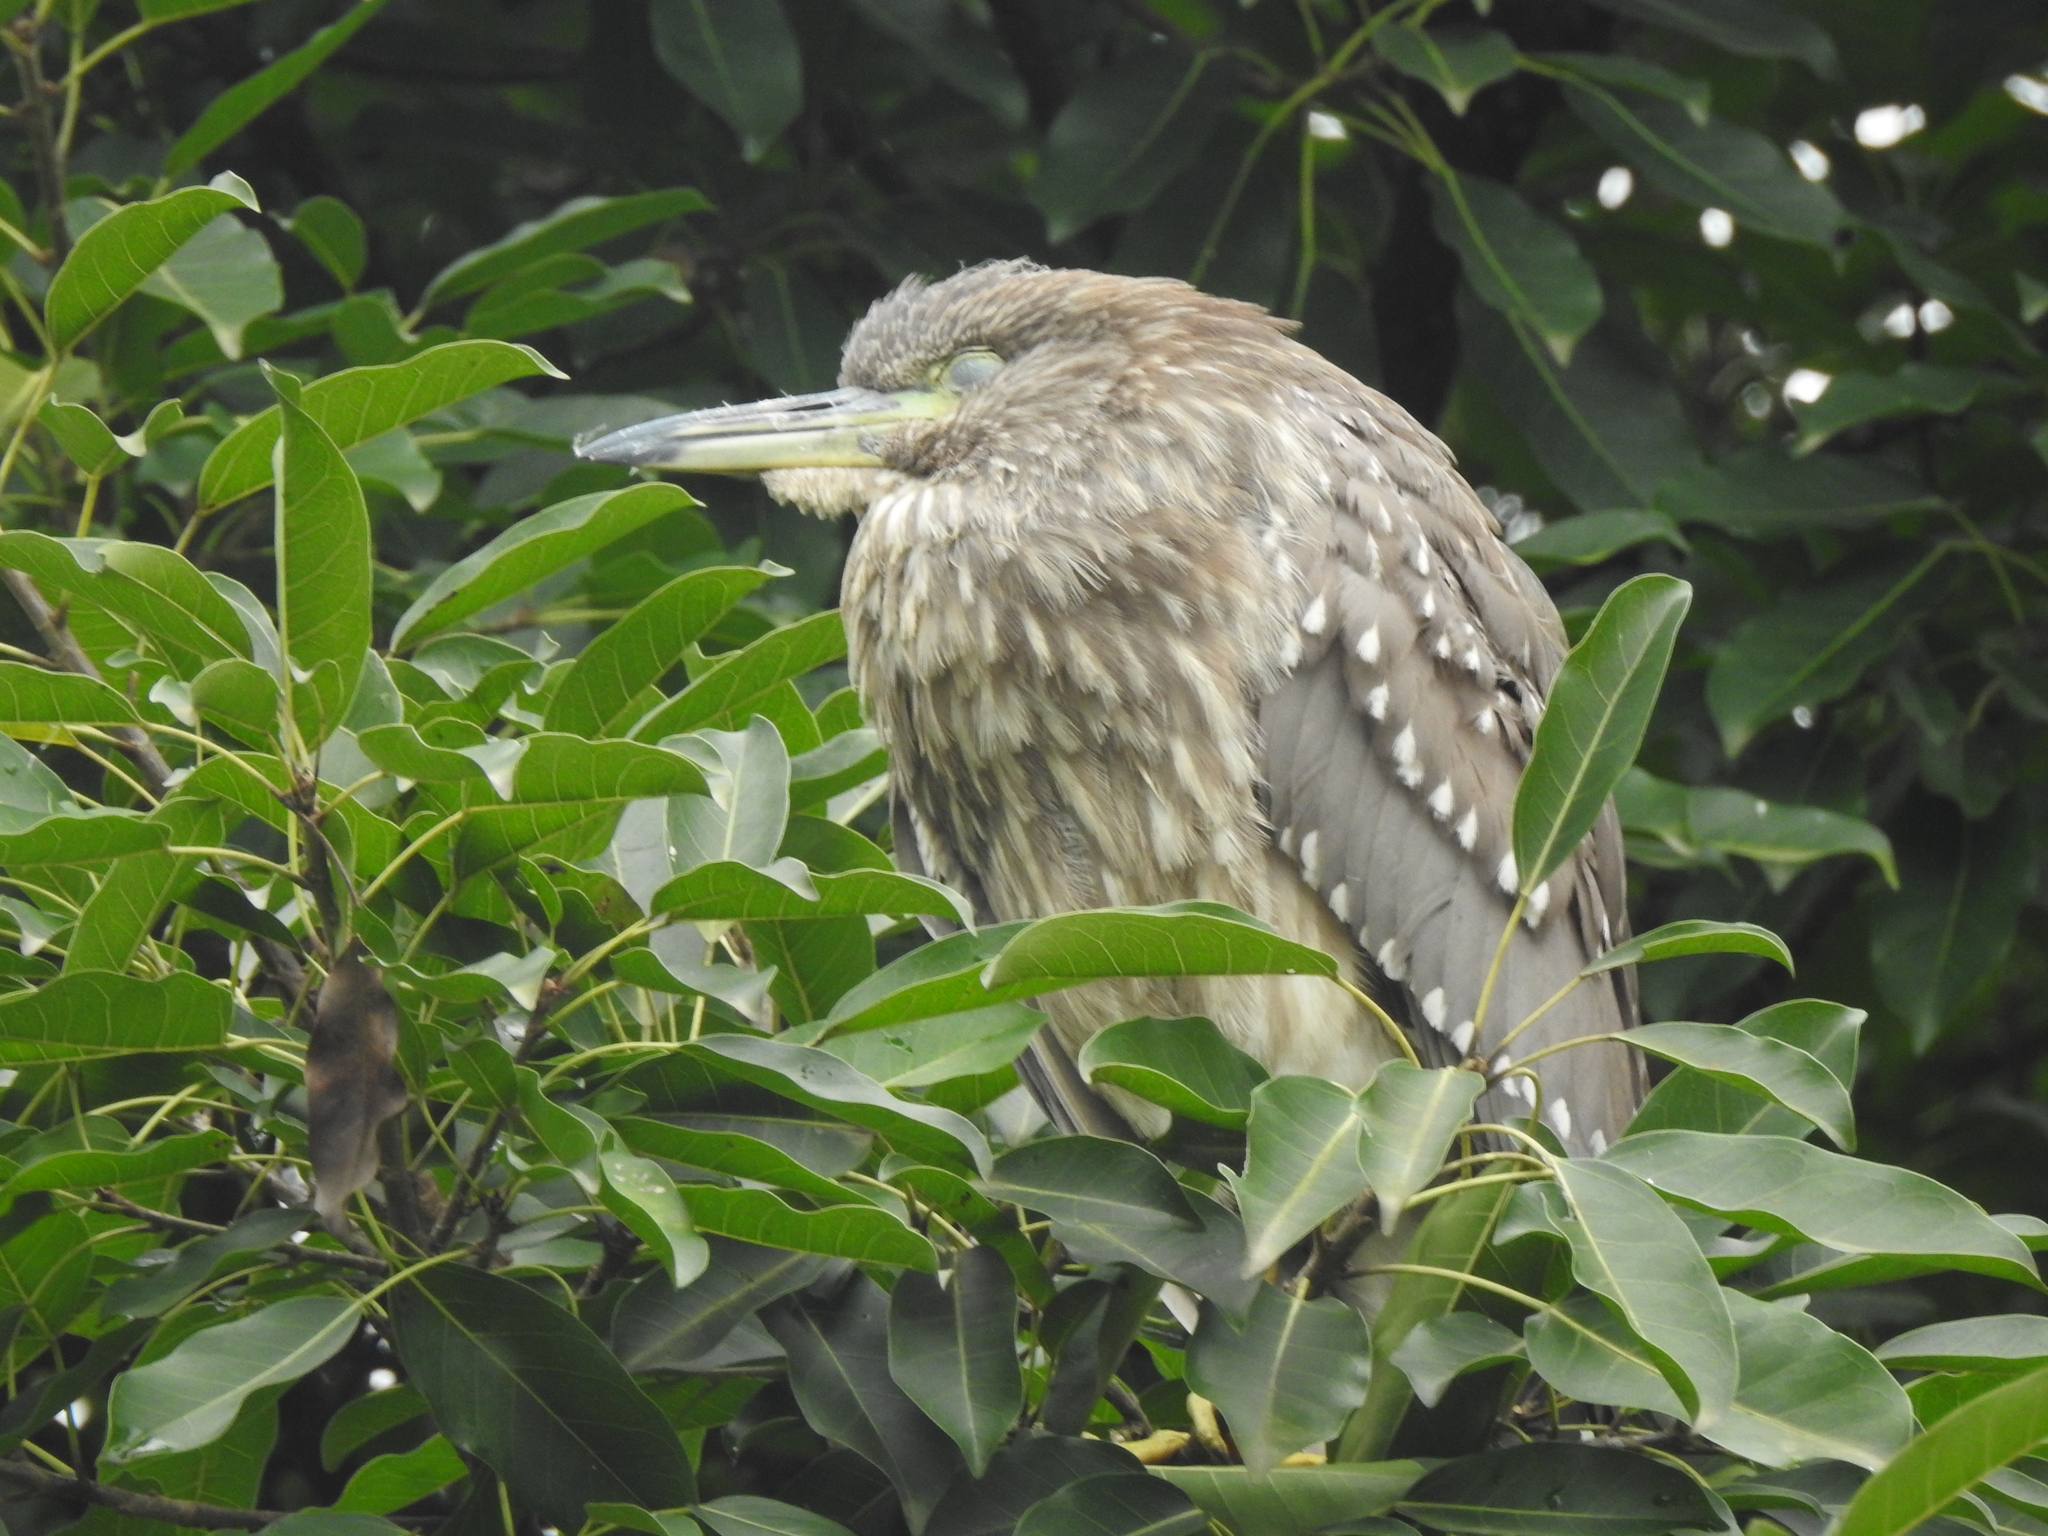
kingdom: Animalia
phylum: Chordata
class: Aves
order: Pelecaniformes
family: Ardeidae
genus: Nycticorax
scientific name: Nycticorax nycticorax
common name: Black-crowned night heron
